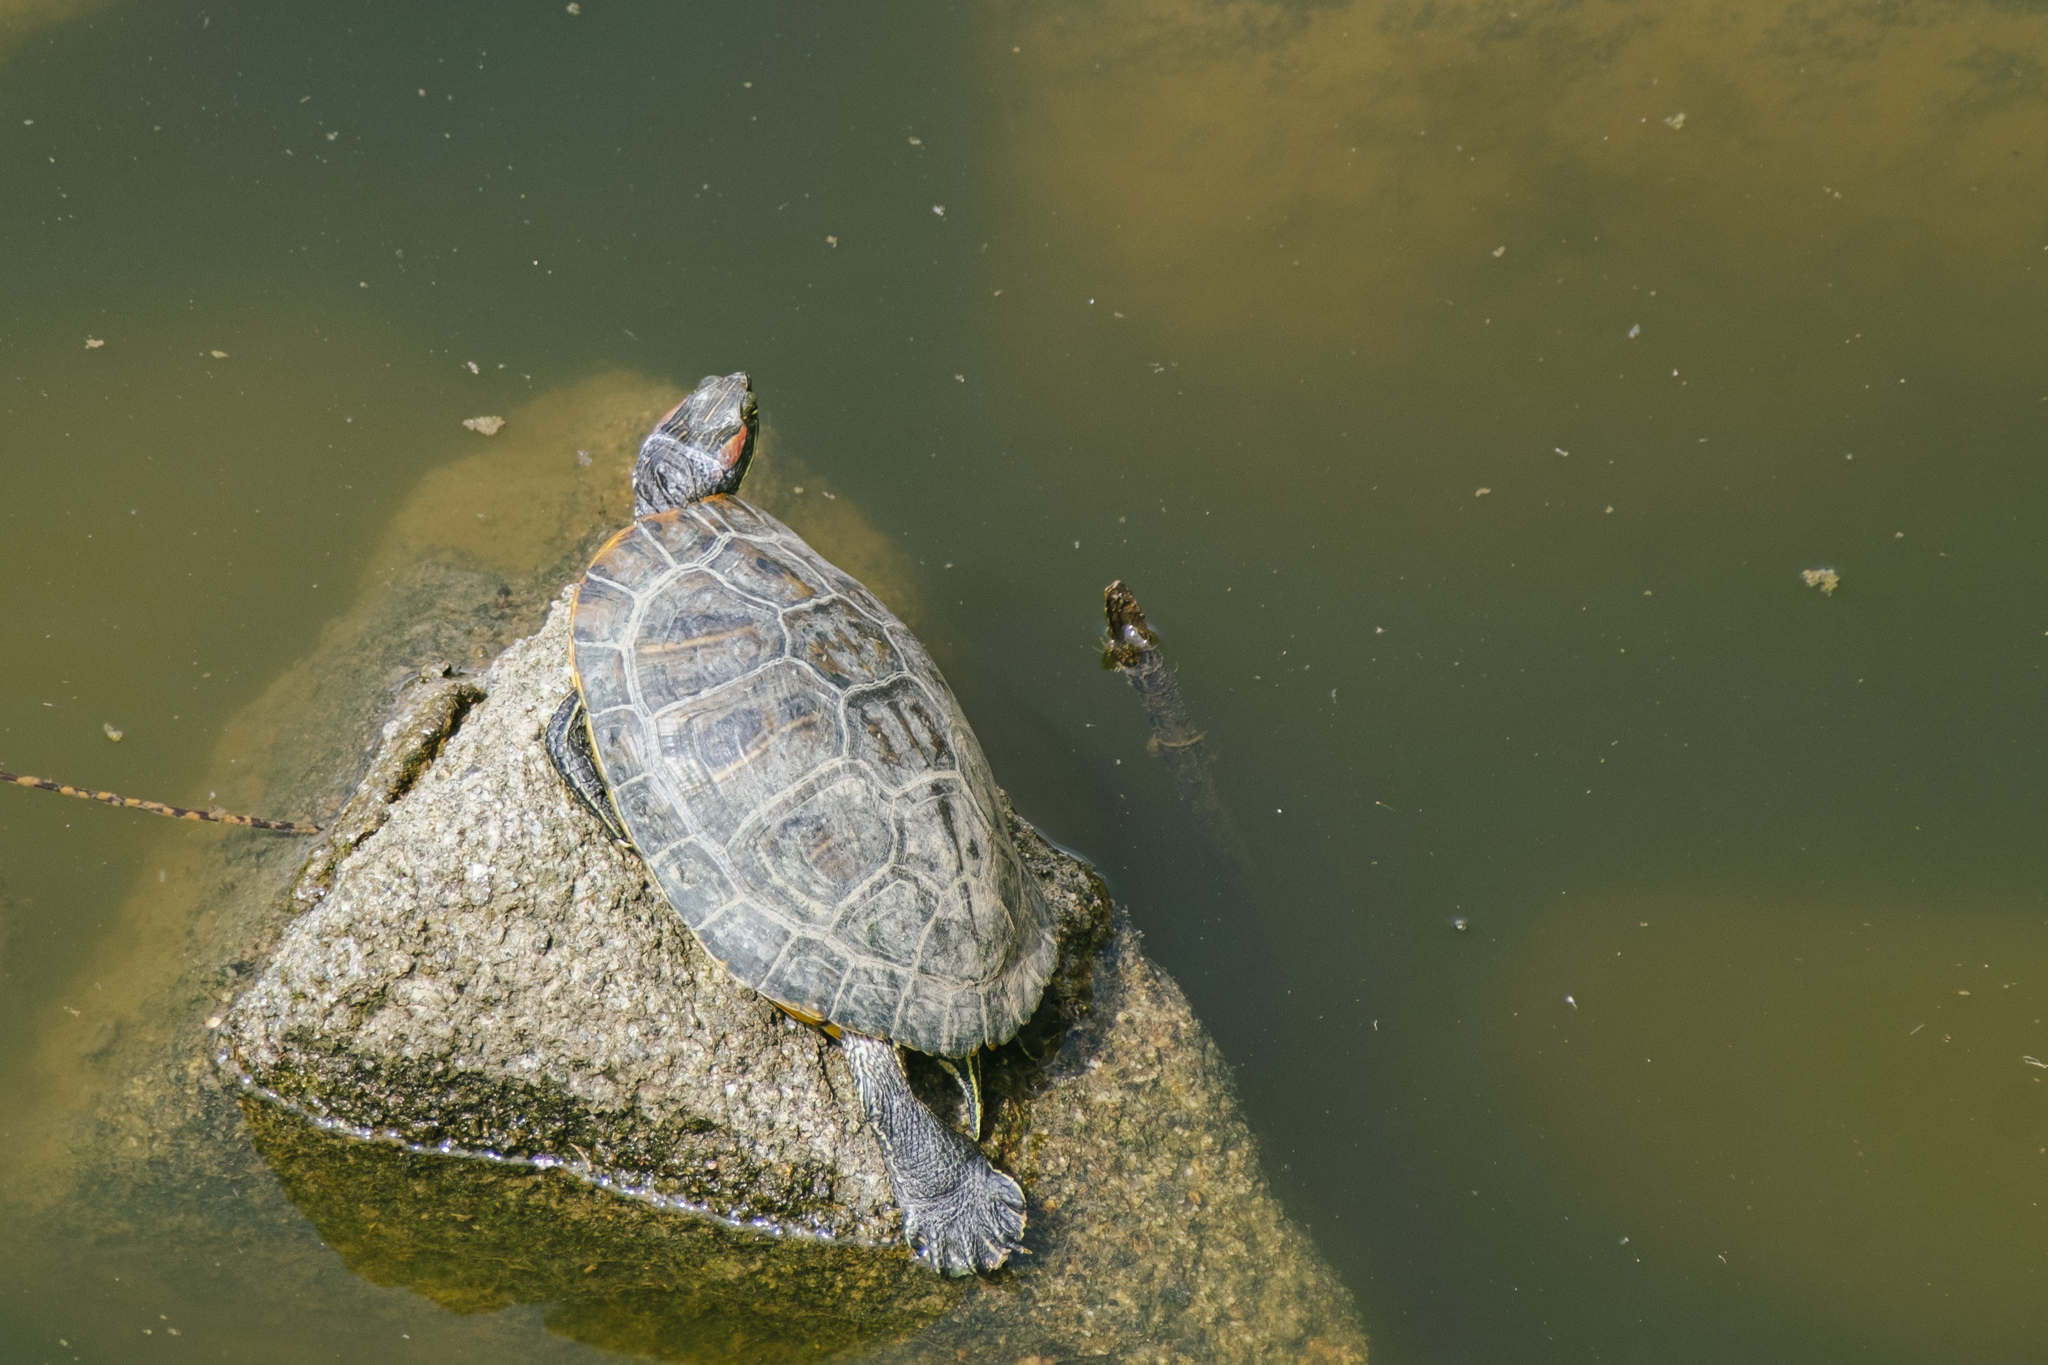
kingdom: Animalia
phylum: Chordata
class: Testudines
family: Emydidae
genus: Trachemys
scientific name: Trachemys scripta
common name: Slider
